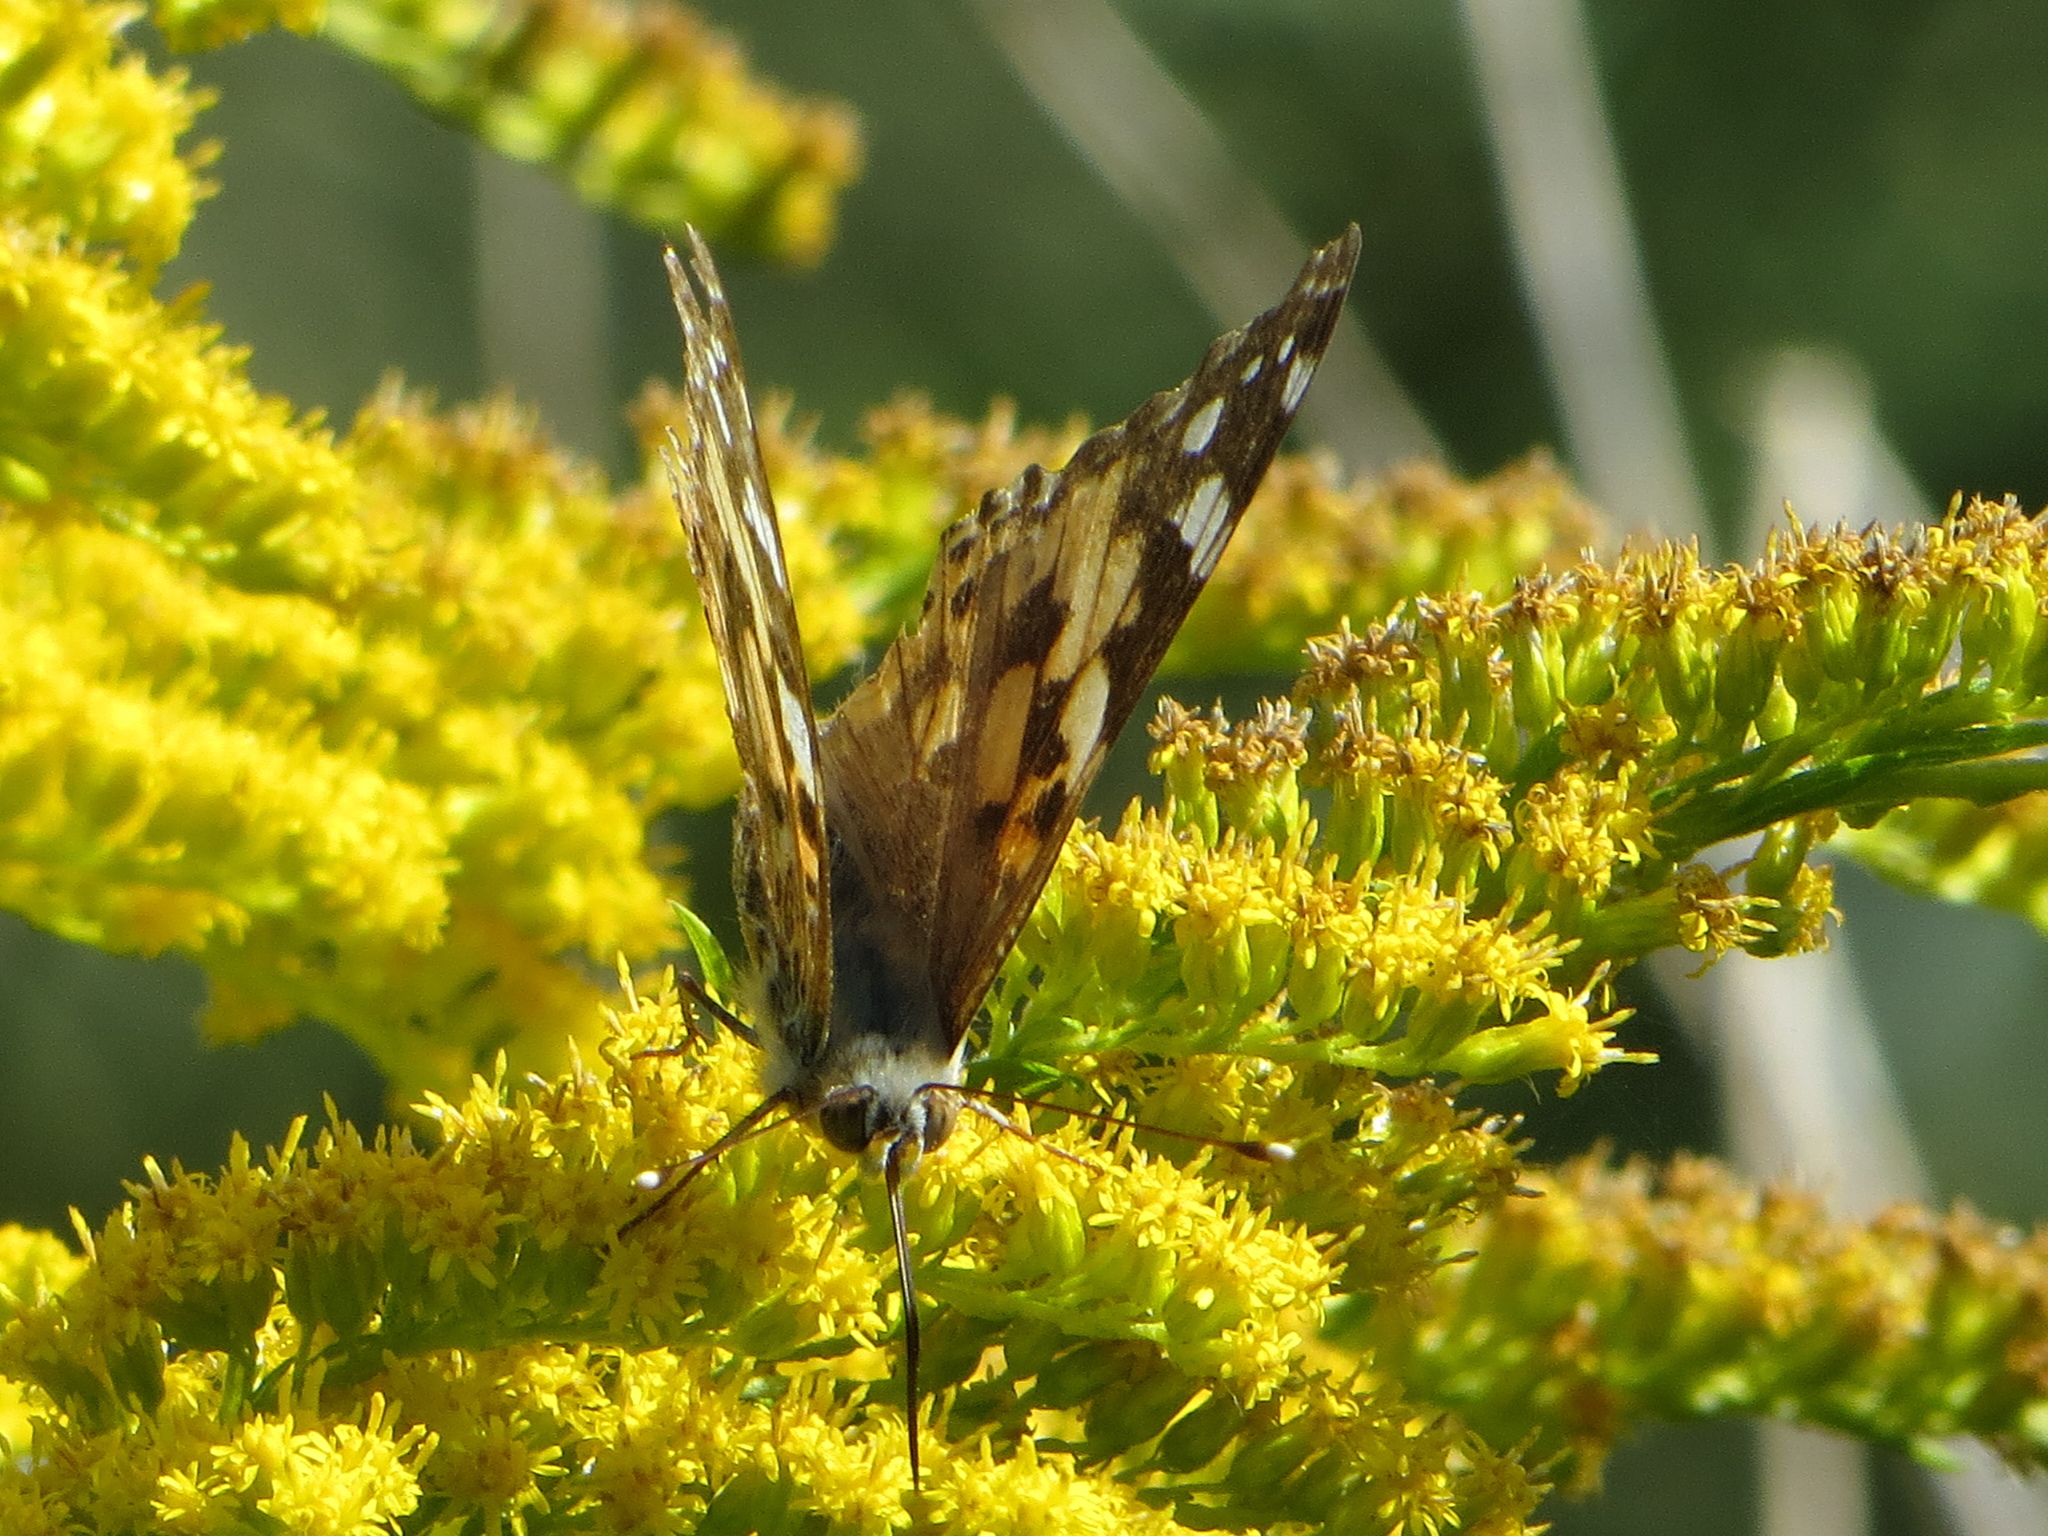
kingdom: Animalia
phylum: Arthropoda
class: Insecta
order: Lepidoptera
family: Nymphalidae
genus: Vanessa
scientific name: Vanessa cardui
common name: Painted lady
